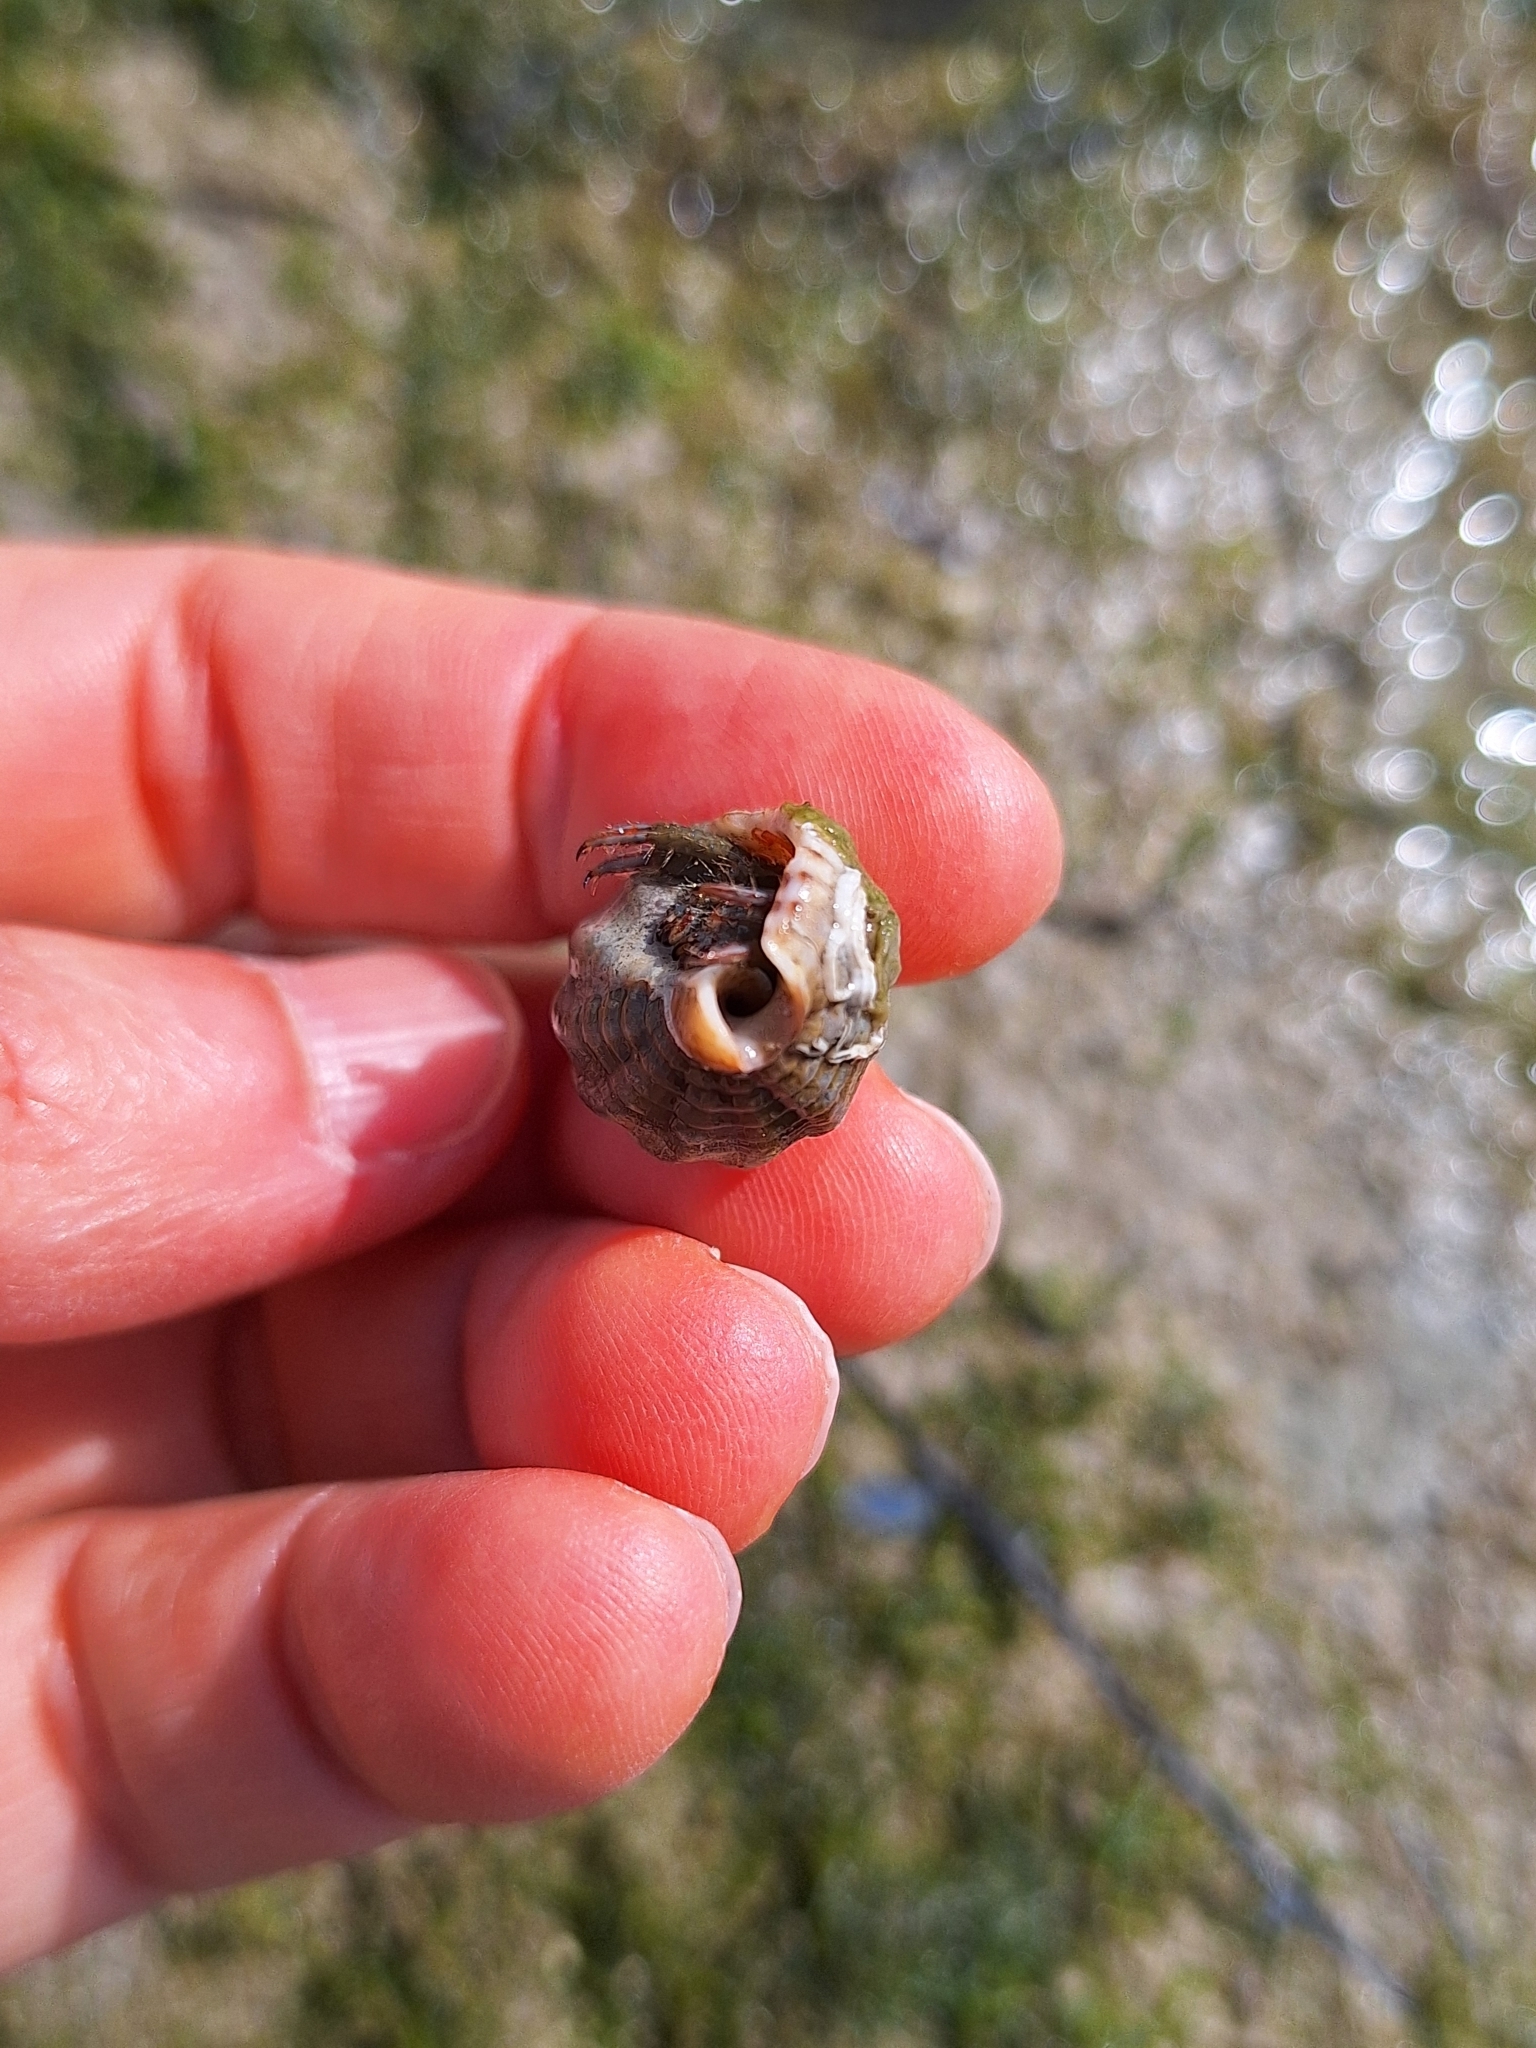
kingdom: Animalia
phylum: Mollusca
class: Gastropoda
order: Neogastropoda
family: Nassariidae
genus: Tritia
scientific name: Tritia nitida
